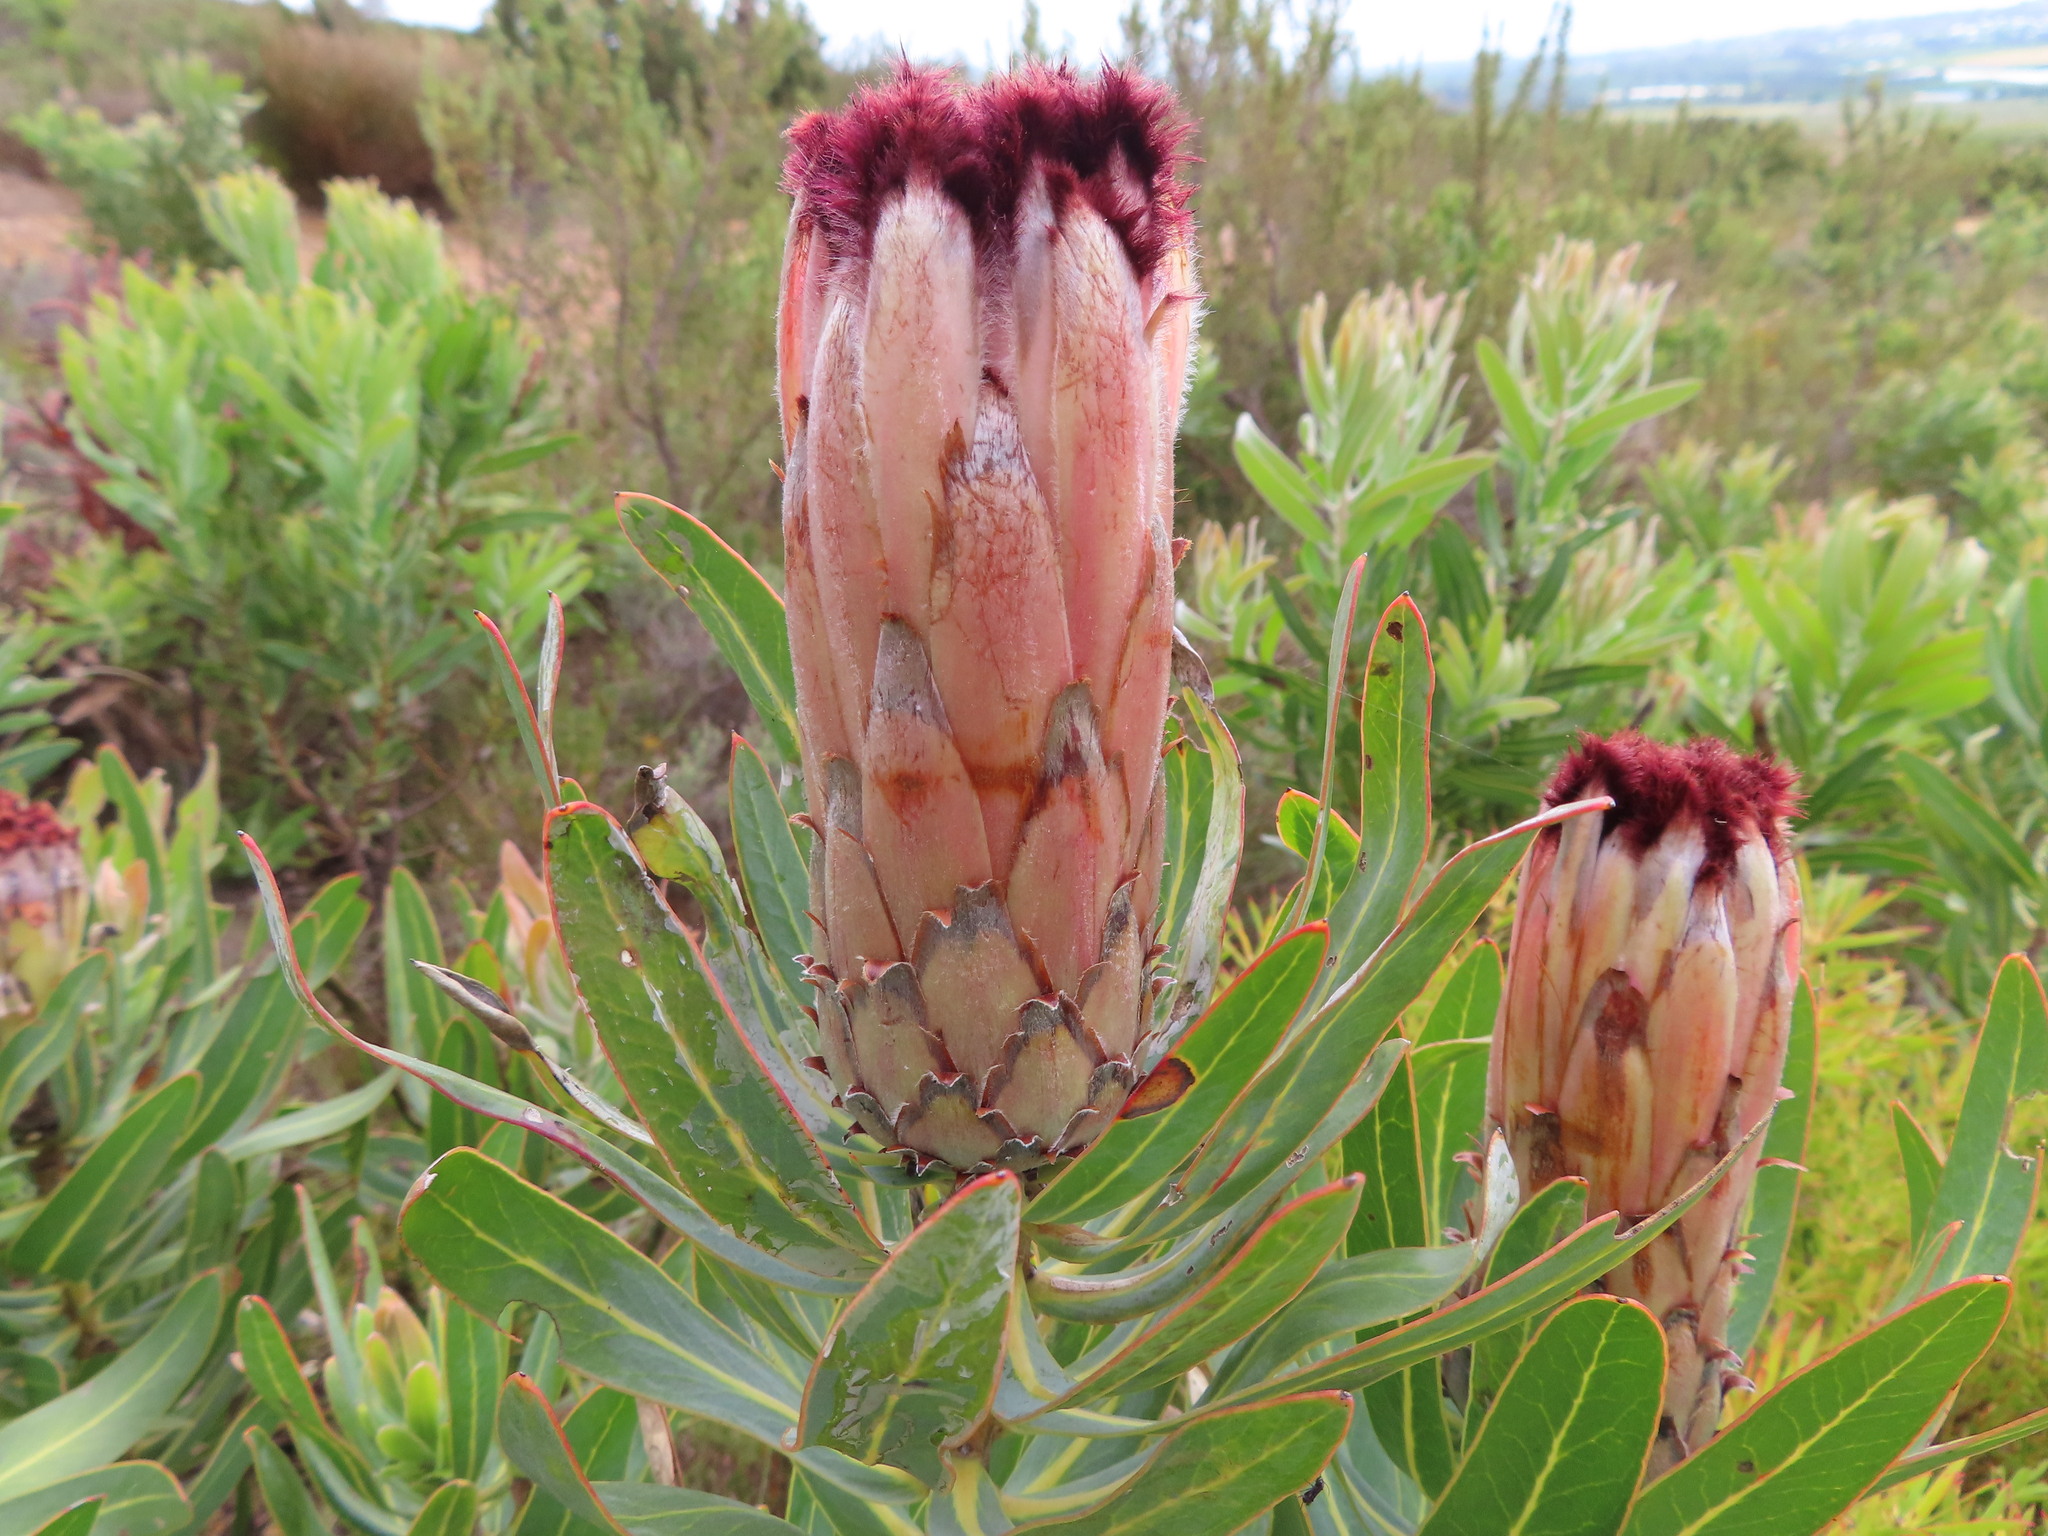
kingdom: Plantae
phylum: Tracheophyta
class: Magnoliopsida
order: Proteales
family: Proteaceae
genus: Protea
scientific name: Protea laurifolia
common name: Grey-leaf sugarbsh
